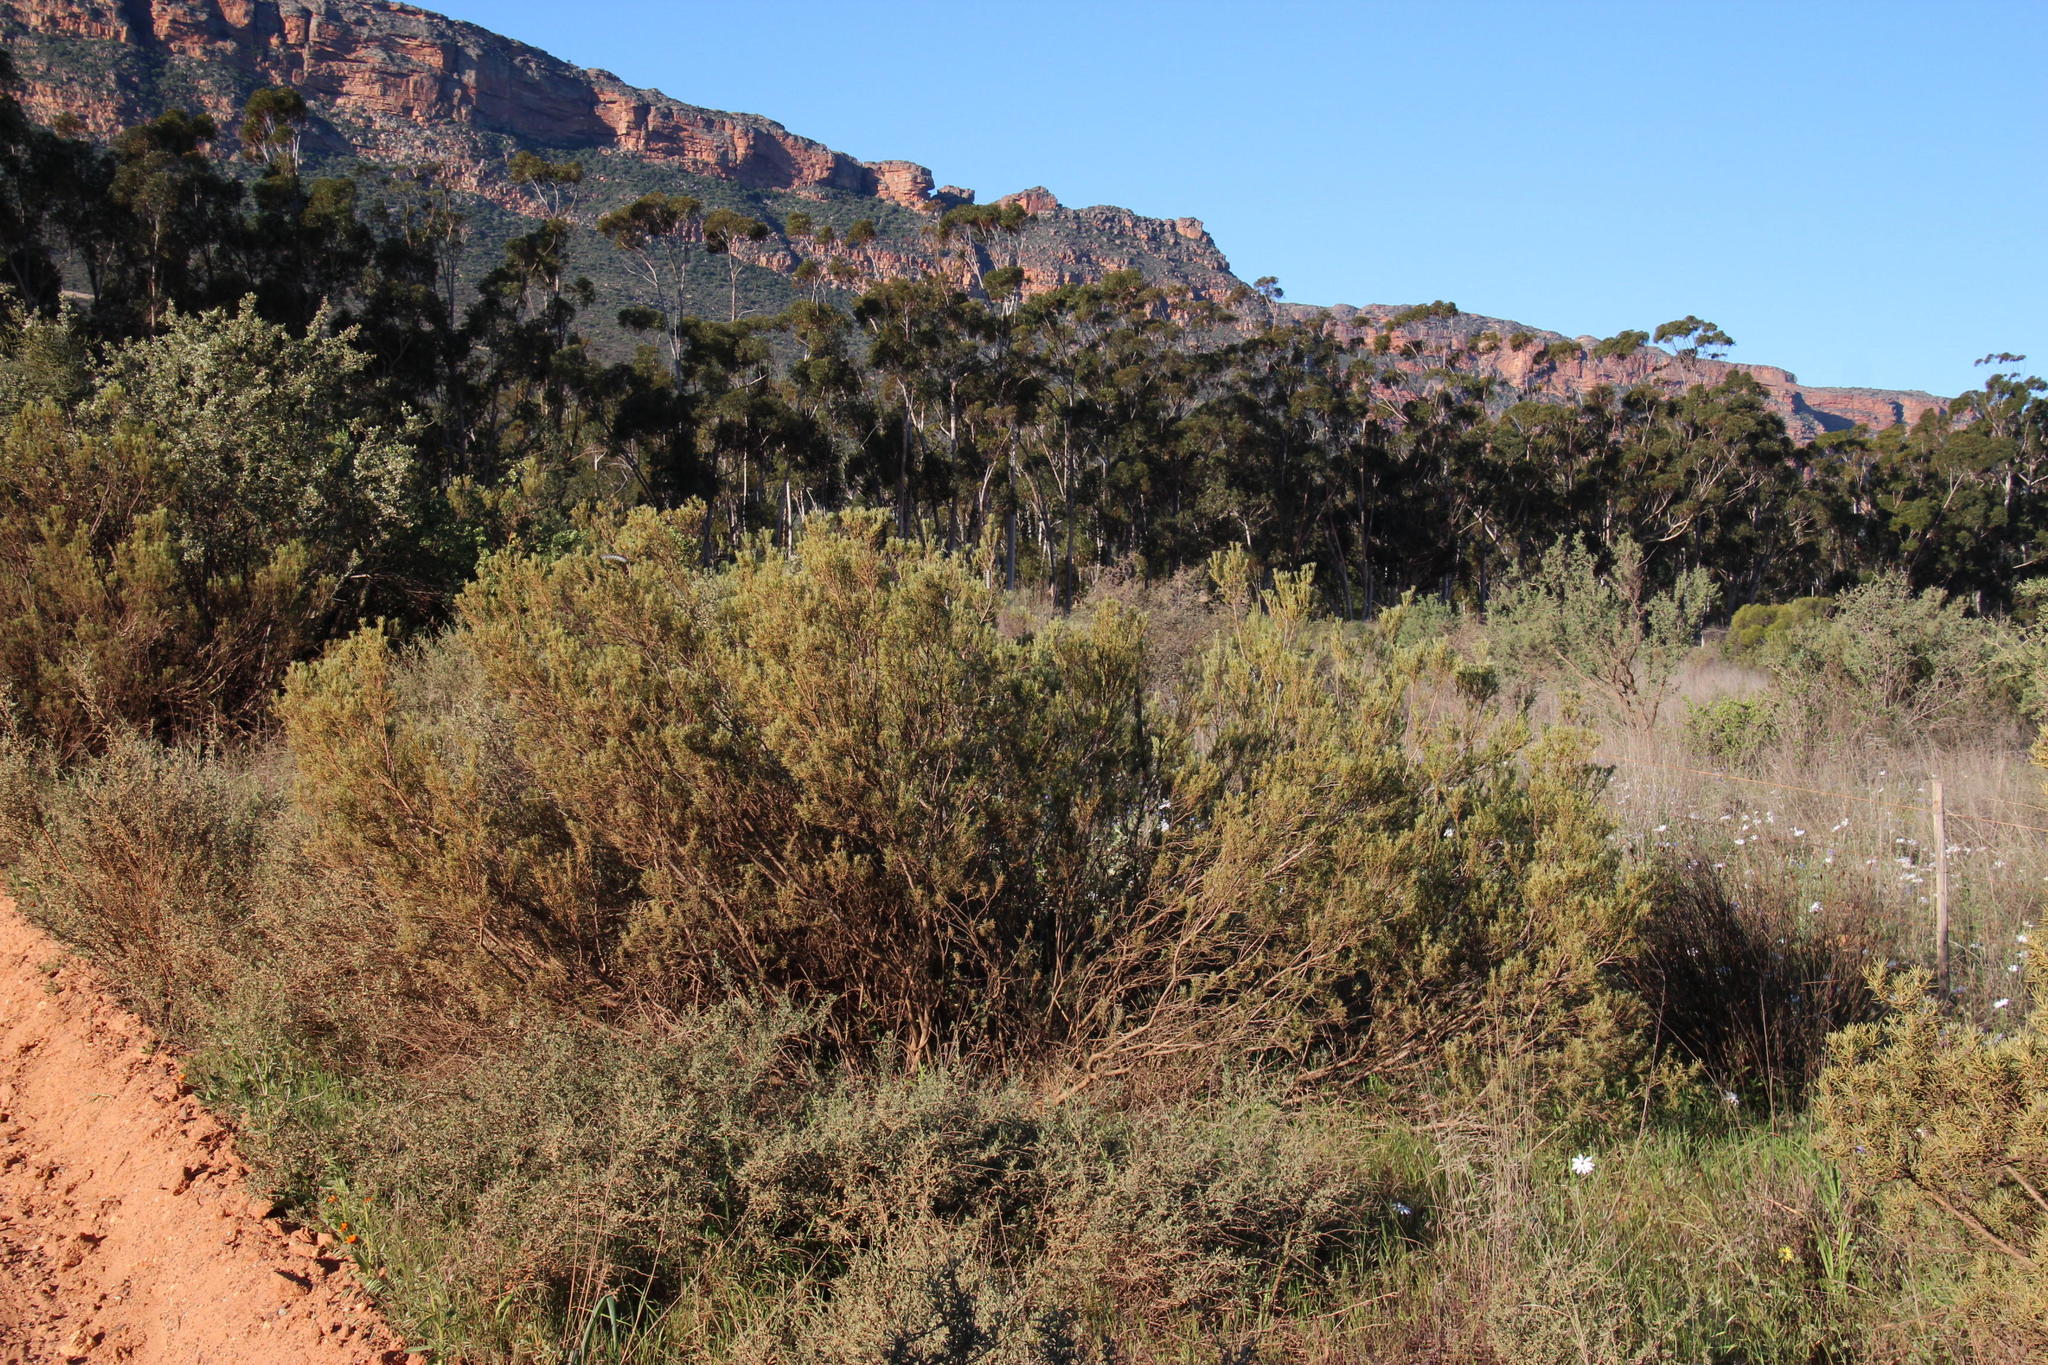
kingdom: Plantae
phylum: Tracheophyta
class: Magnoliopsida
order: Proteales
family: Proteaceae
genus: Leucadendron
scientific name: Leucadendron brunioides
